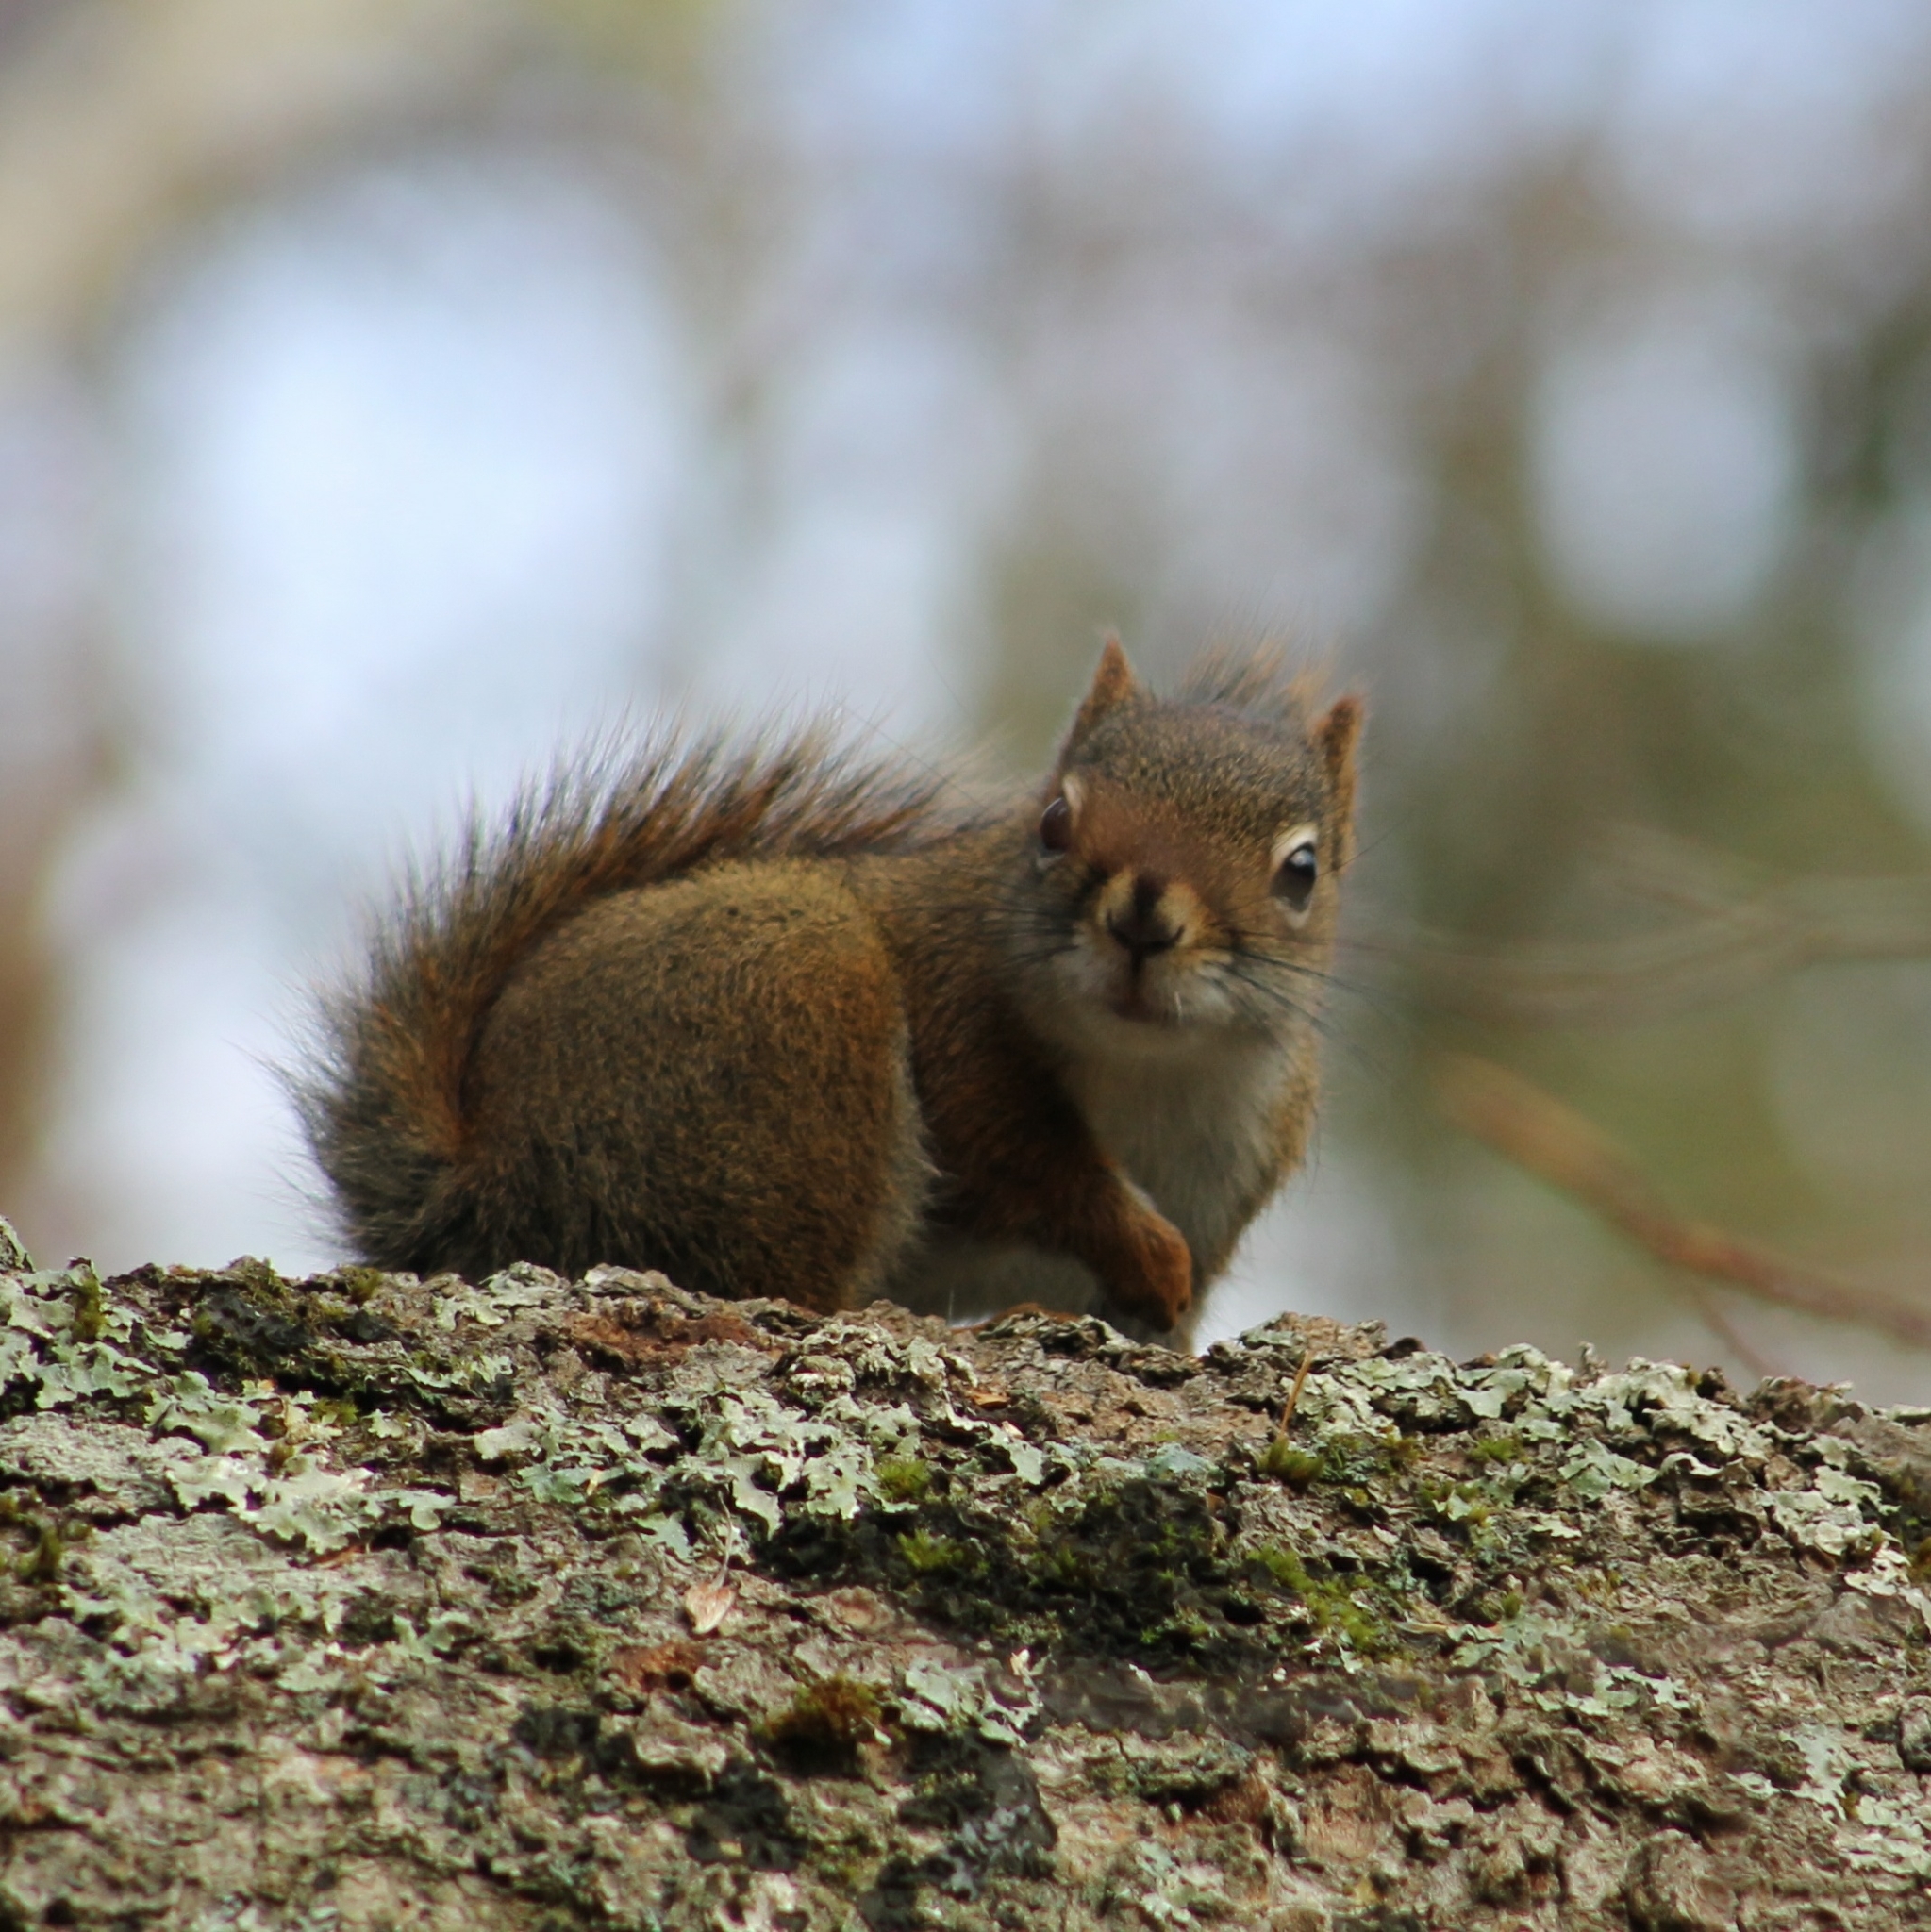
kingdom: Animalia
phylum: Chordata
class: Mammalia
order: Rodentia
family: Sciuridae
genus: Tamiasciurus
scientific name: Tamiasciurus hudsonicus
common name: Red squirrel
